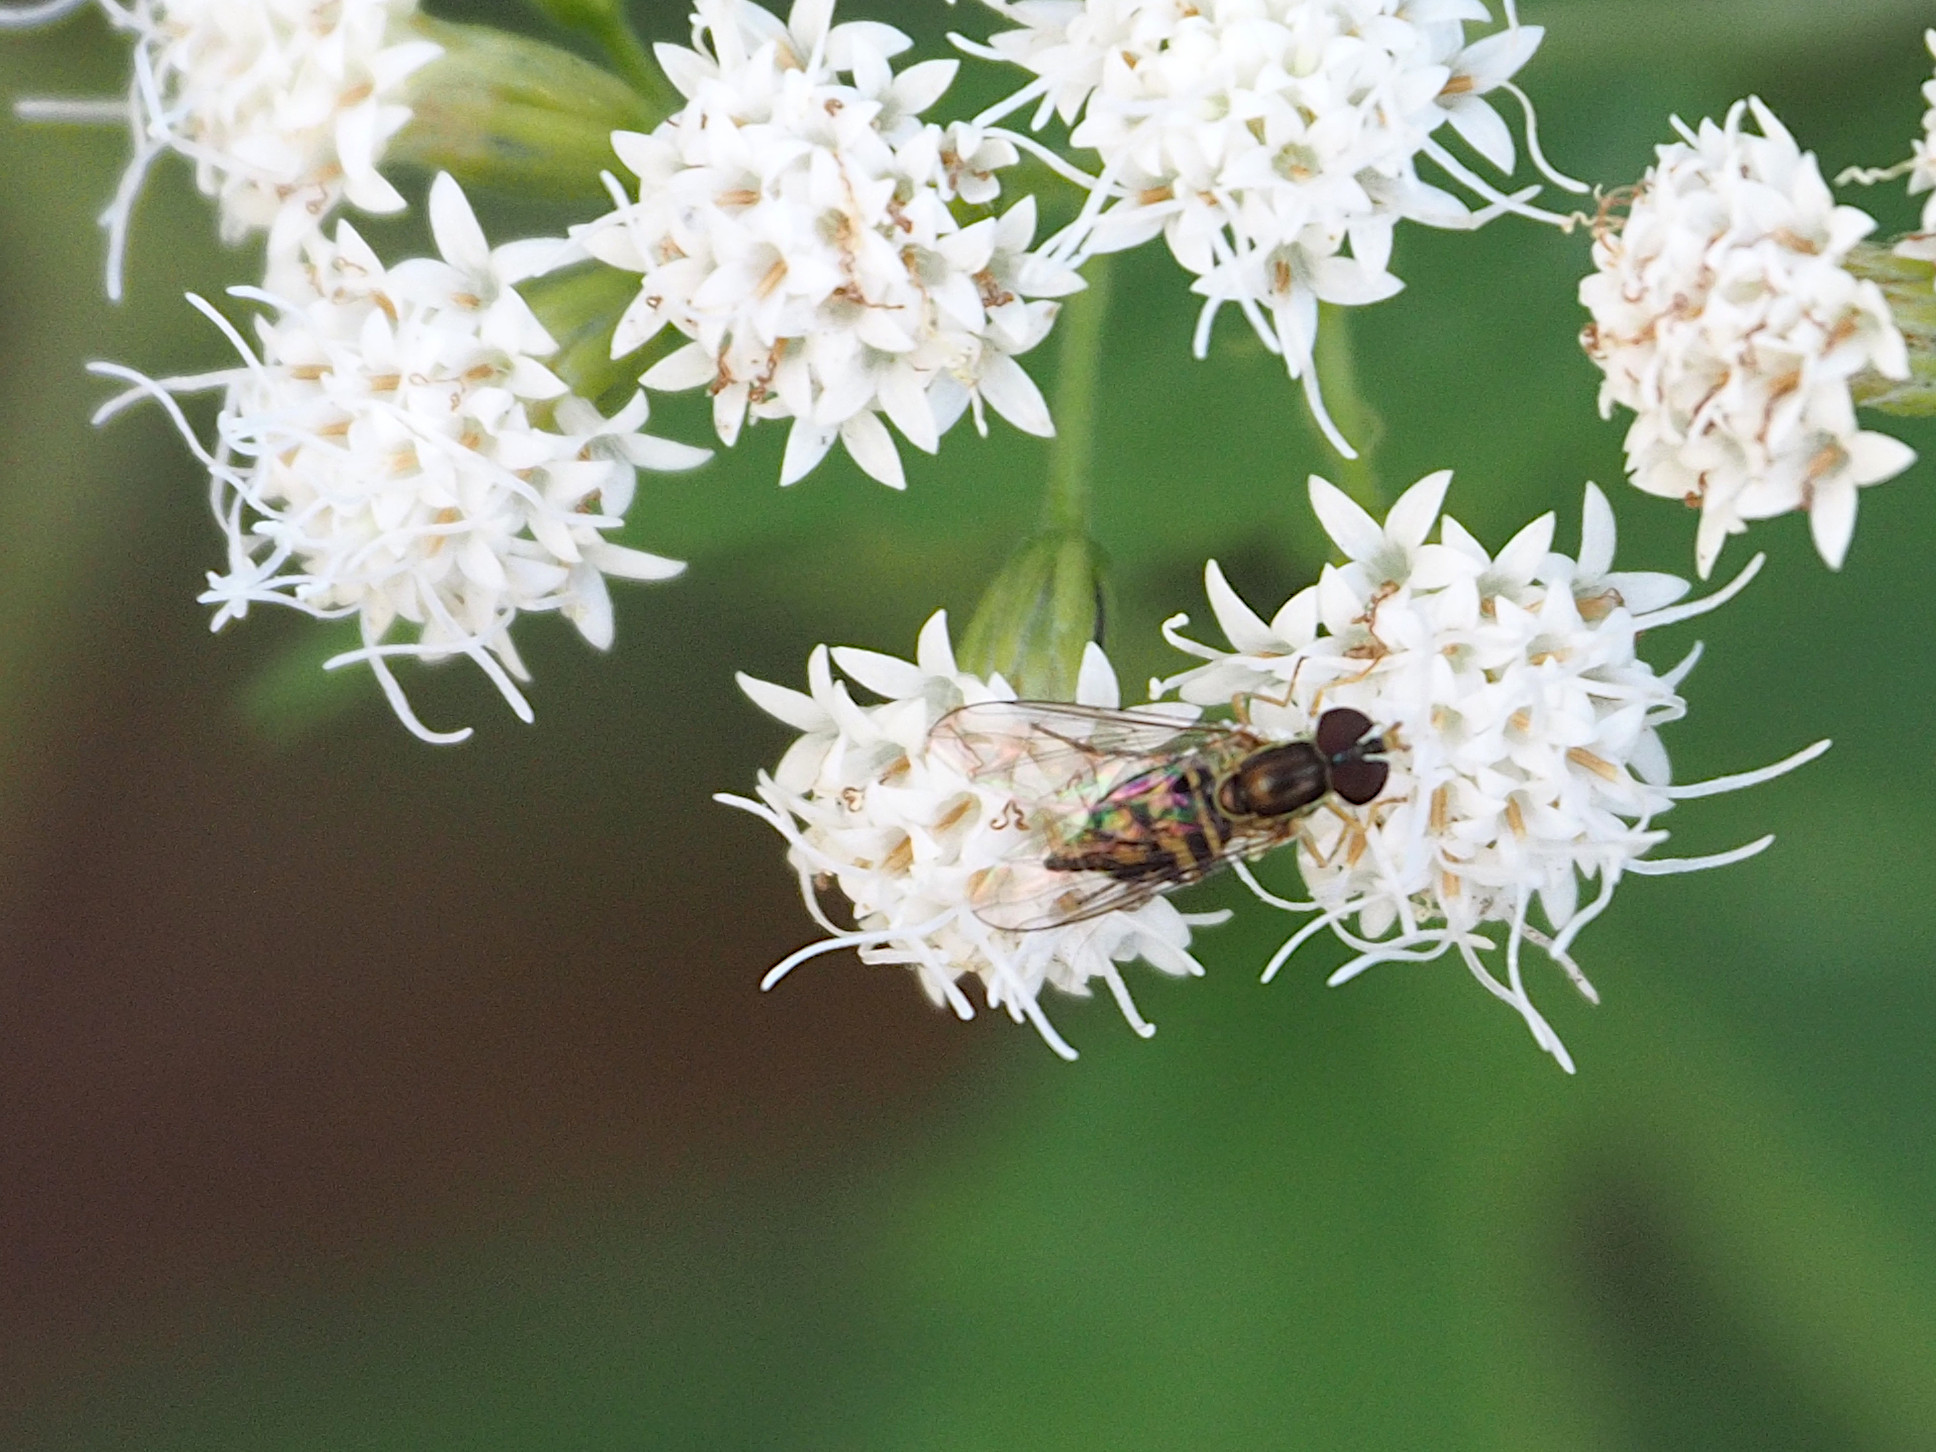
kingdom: Animalia
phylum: Arthropoda
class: Insecta
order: Diptera
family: Syrphidae
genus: Toxomerus
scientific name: Toxomerus geminatus
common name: Eastern calligrapher
